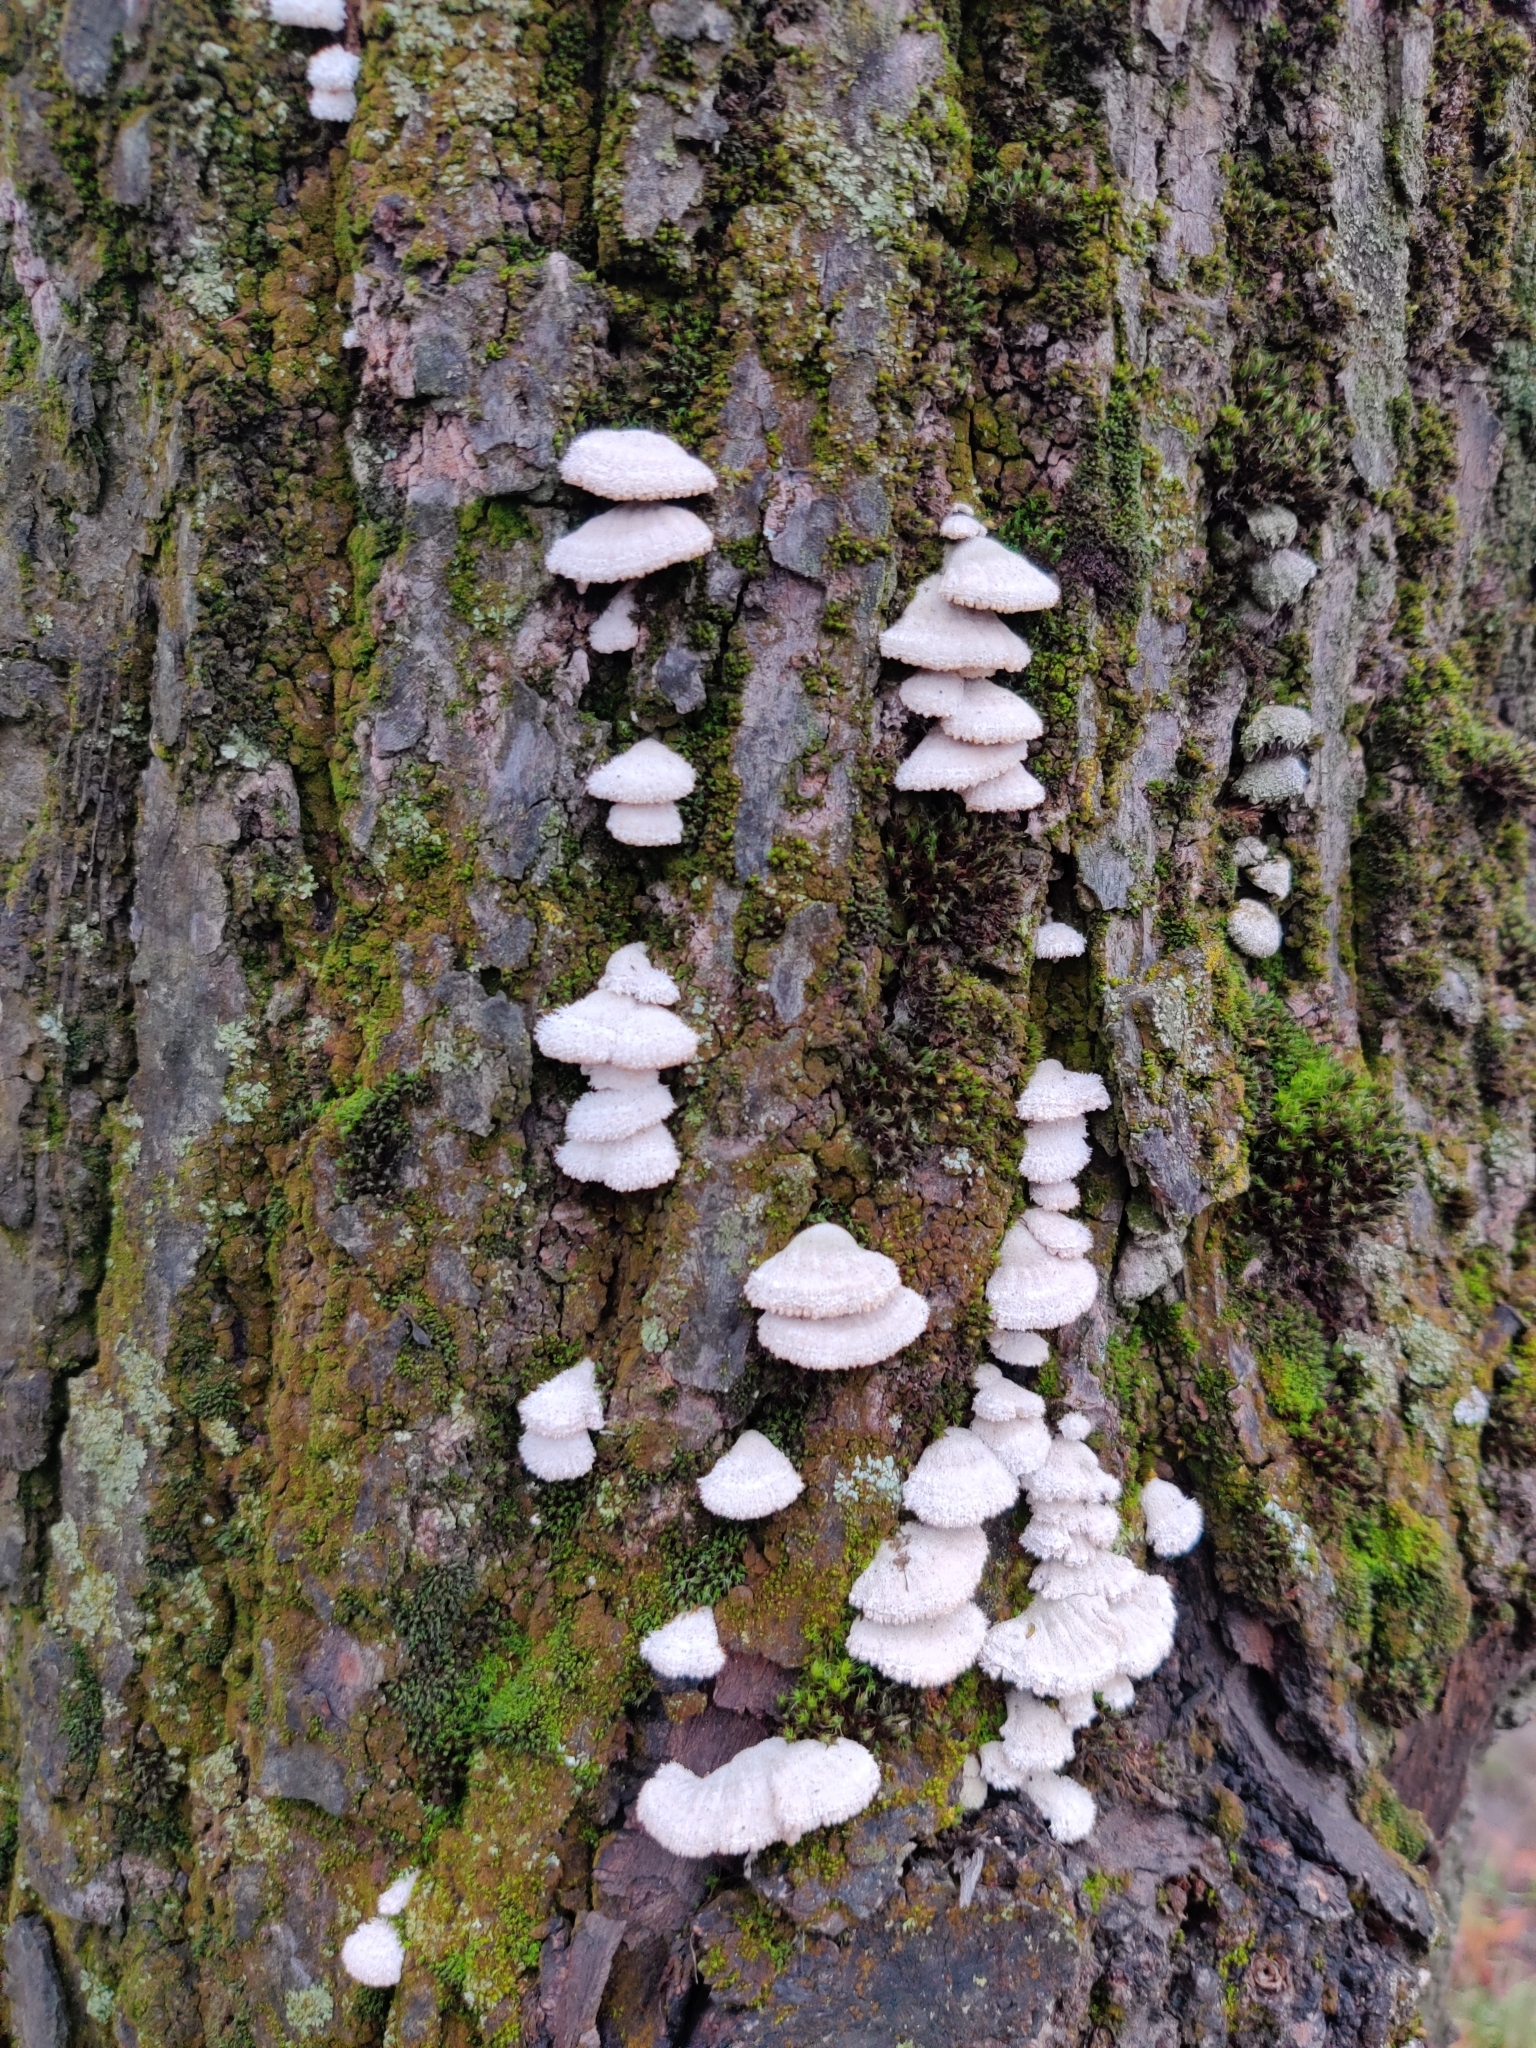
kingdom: Fungi
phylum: Basidiomycota
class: Agaricomycetes
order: Agaricales
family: Schizophyllaceae
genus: Schizophyllum
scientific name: Schizophyllum commune
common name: Common porecrust
